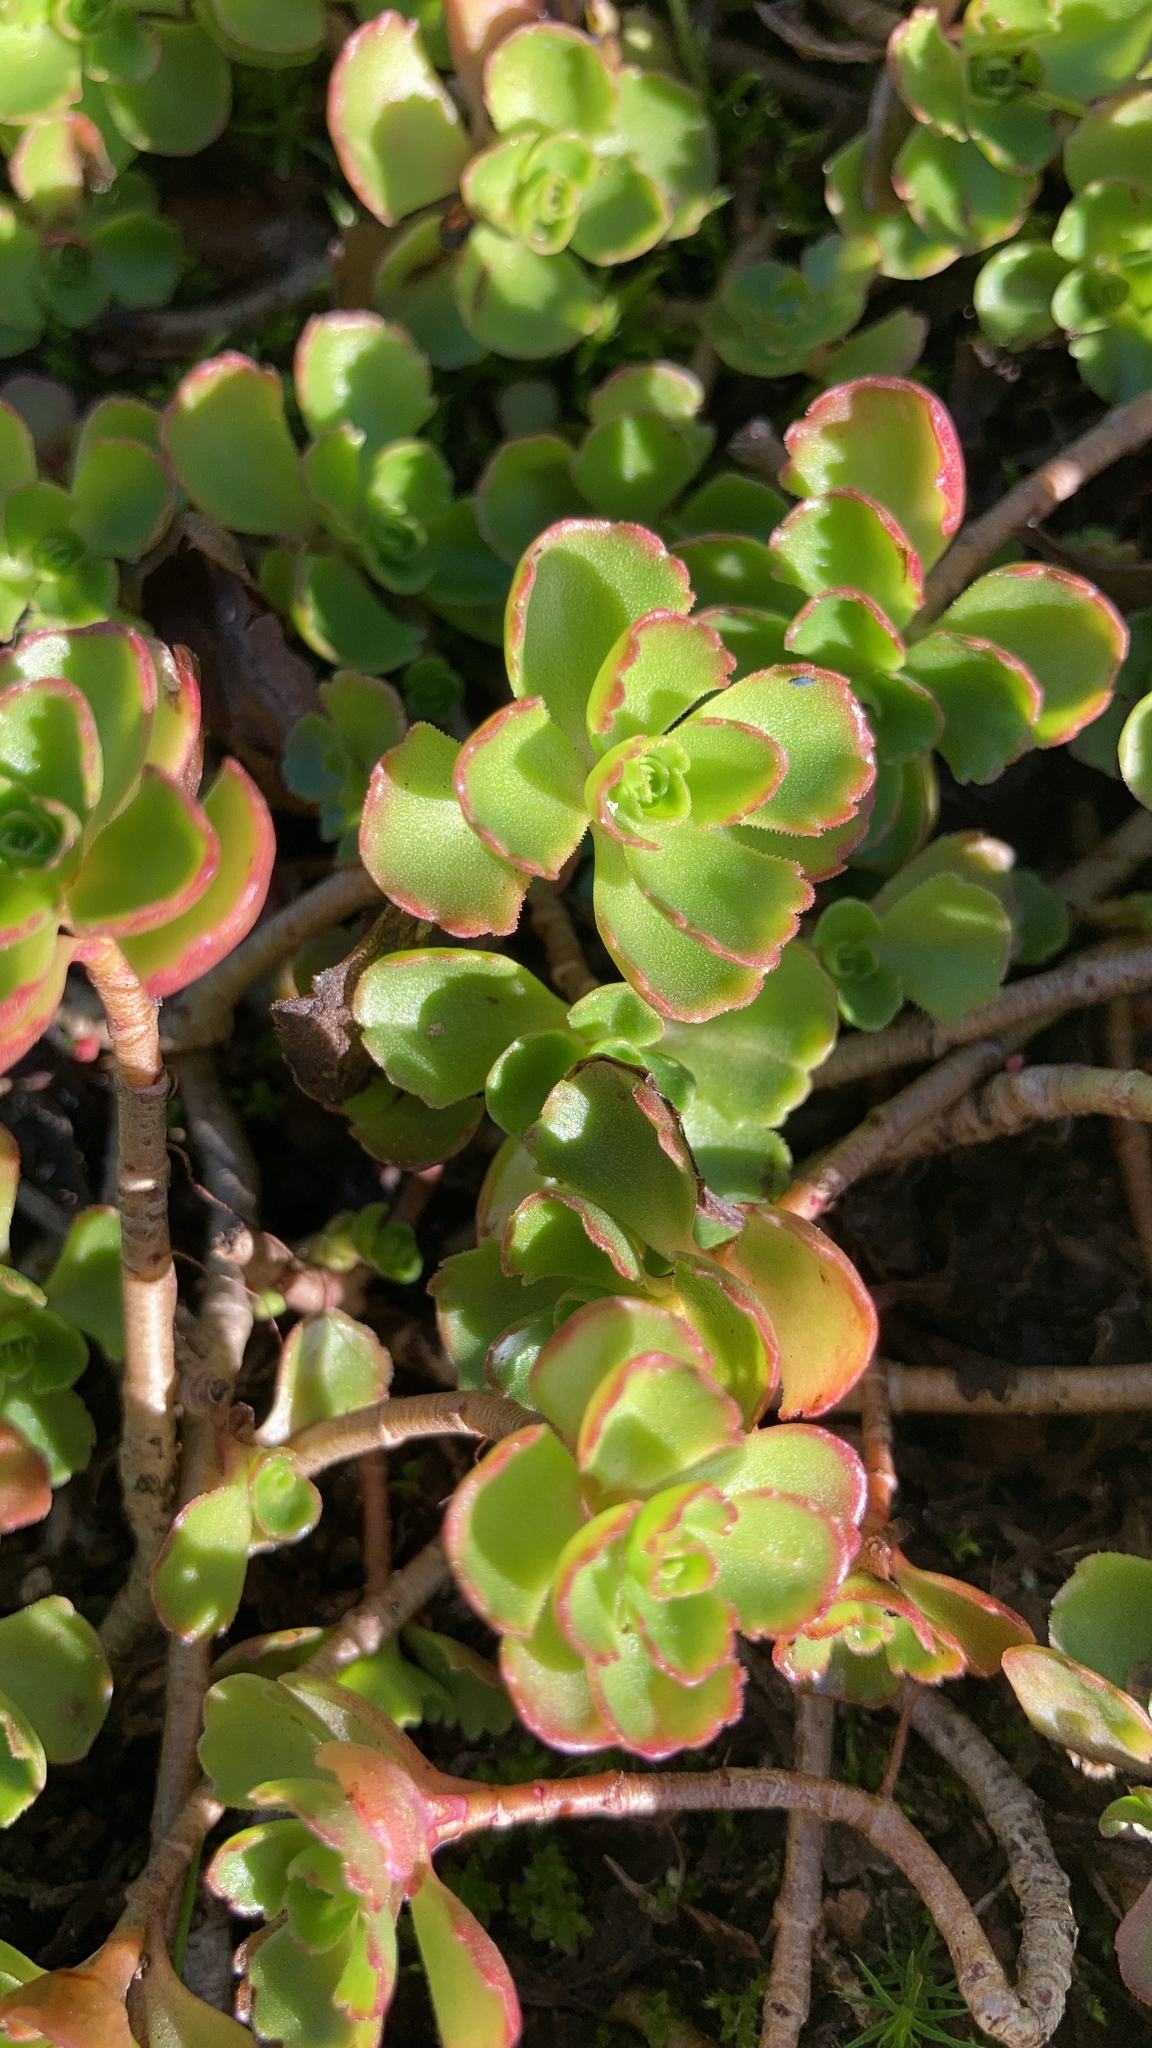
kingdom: Plantae
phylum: Tracheophyta
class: Magnoliopsida
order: Saxifragales
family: Crassulaceae
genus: Phedimus
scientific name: Phedimus spurius
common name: Caucasian stonecrop
